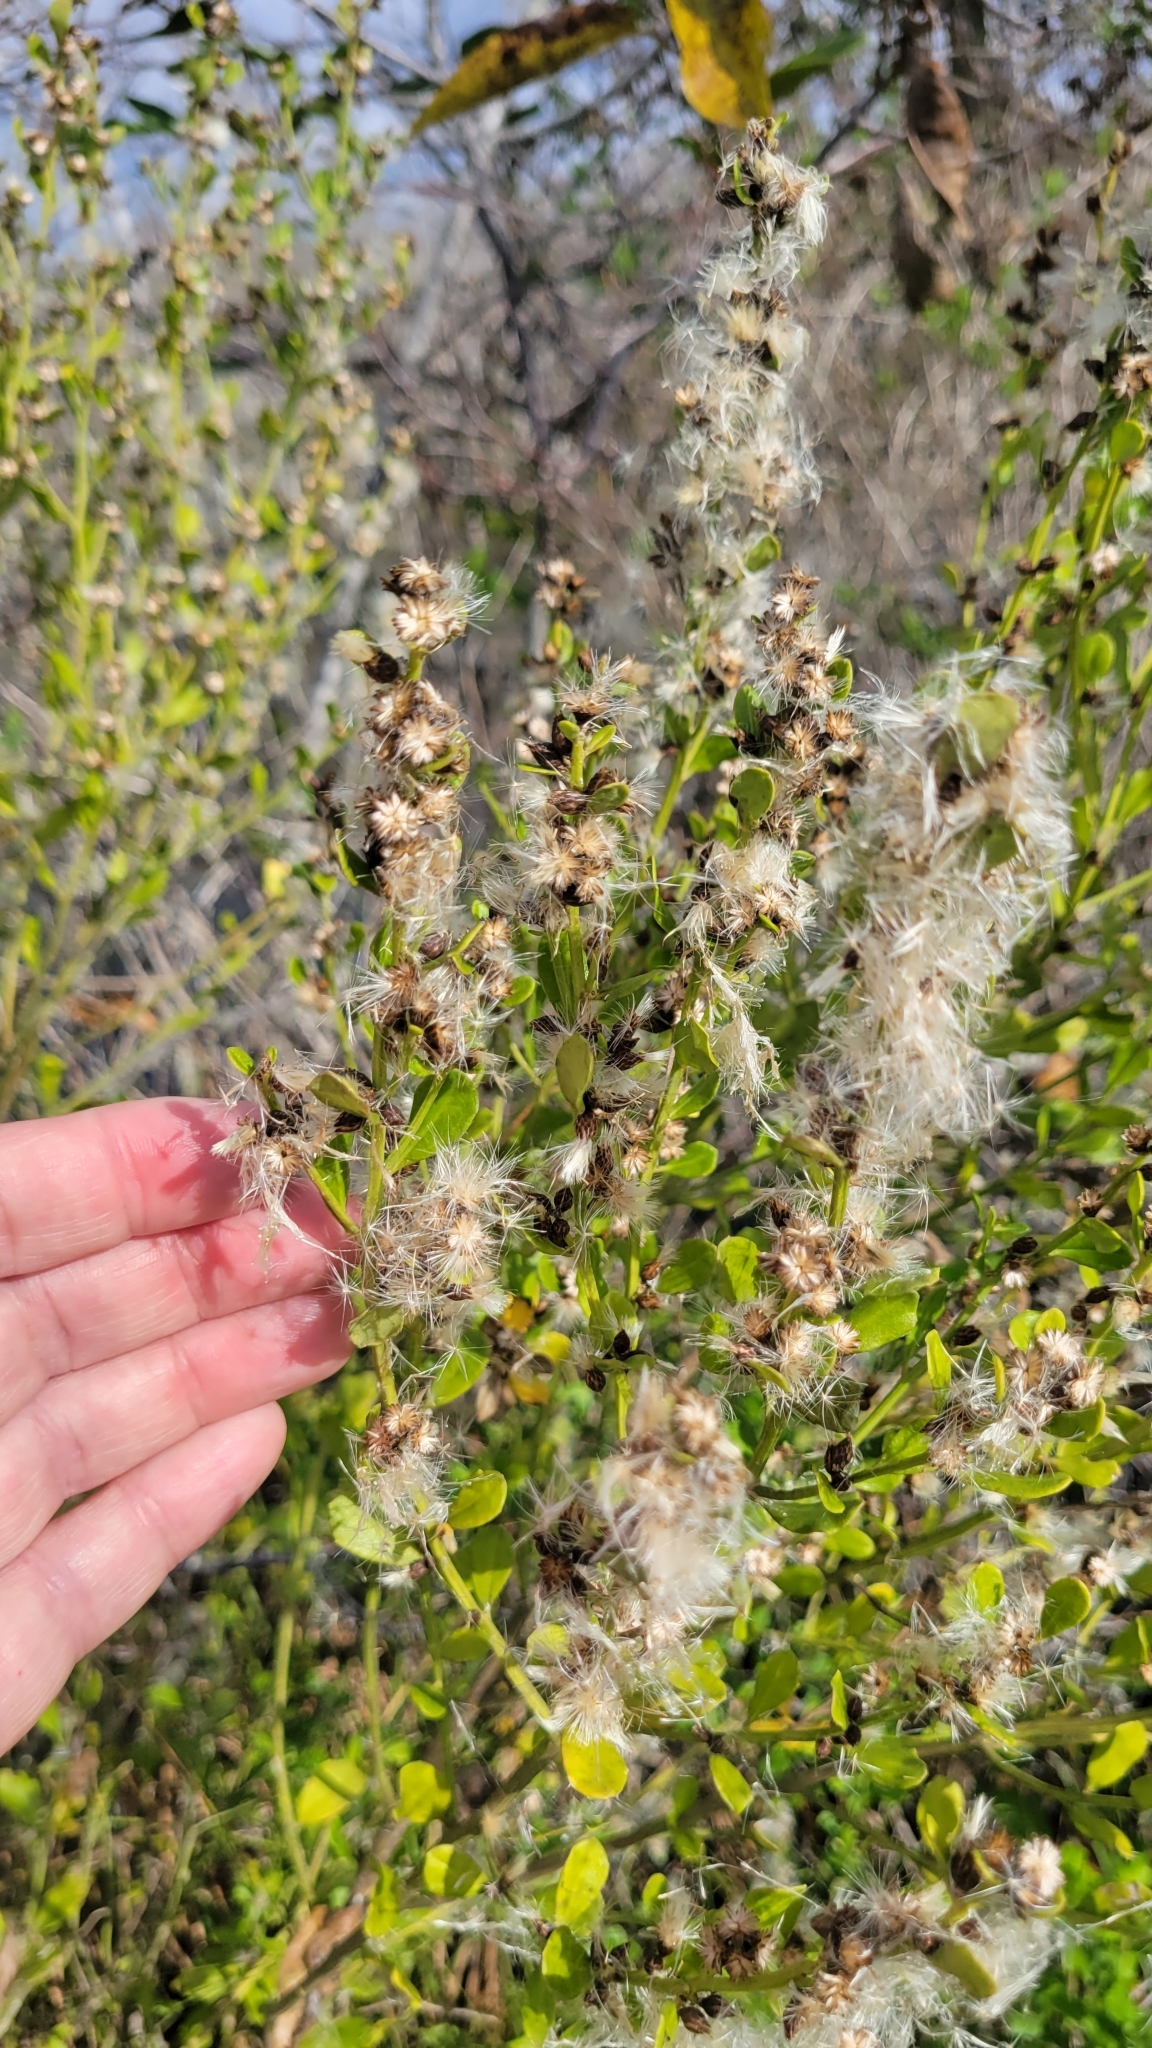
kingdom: Plantae
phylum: Tracheophyta
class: Magnoliopsida
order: Asterales
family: Asteraceae
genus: Baccharis
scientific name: Baccharis glomeruliflora
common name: Silverling groundsel bush
